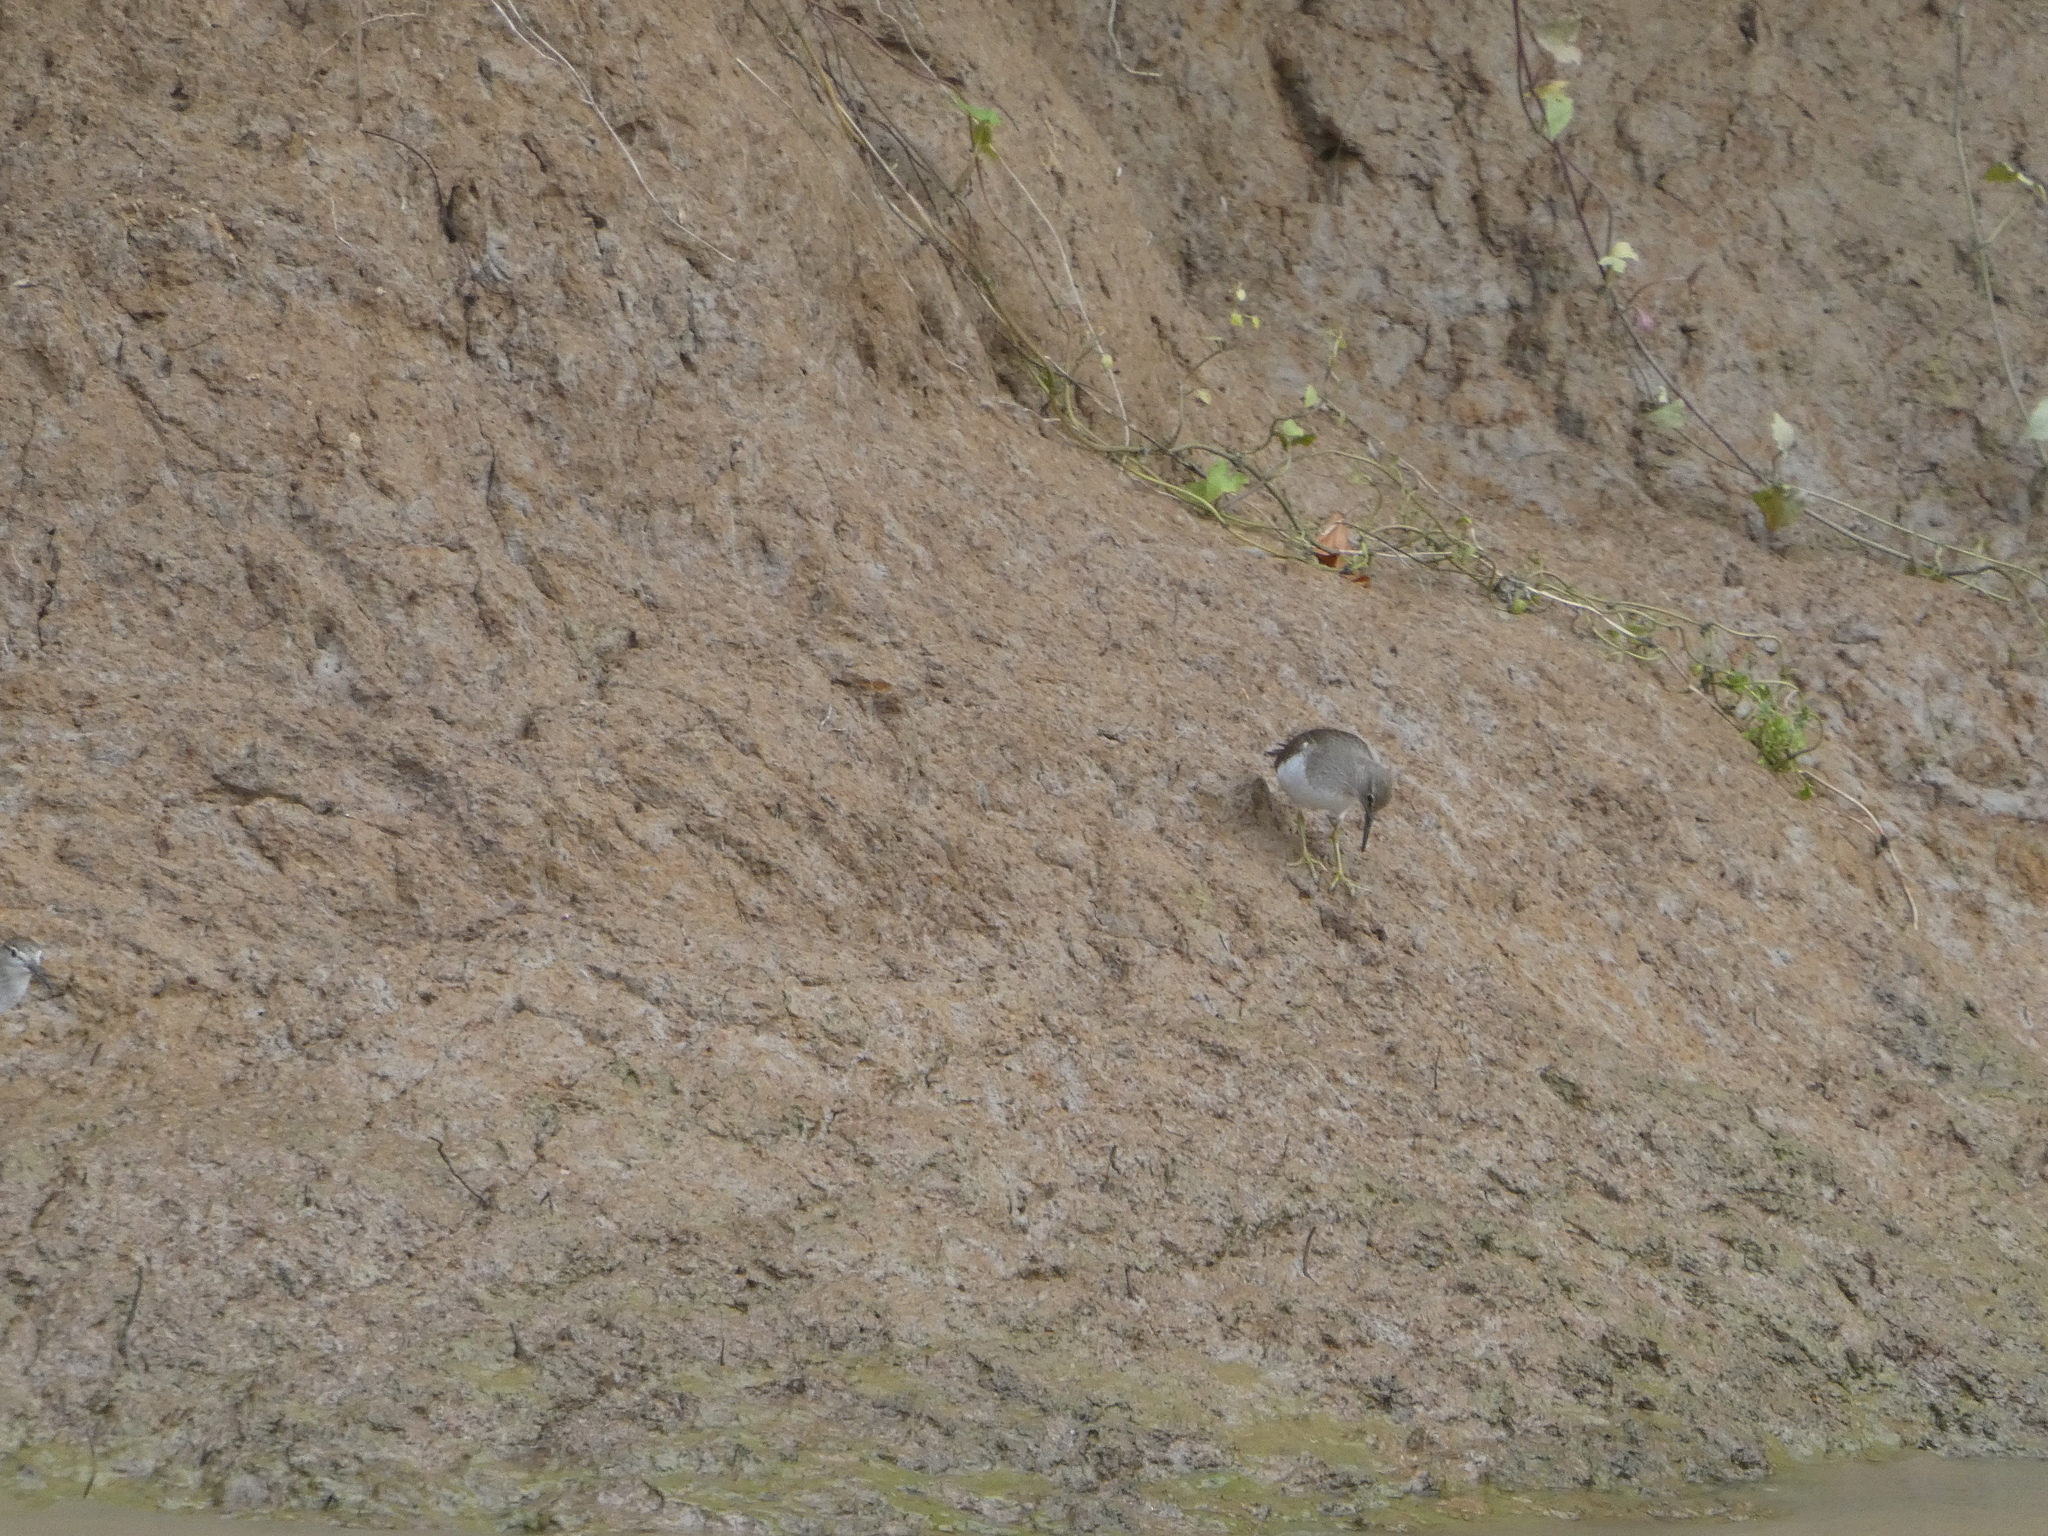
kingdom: Animalia
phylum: Chordata
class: Aves
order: Charadriiformes
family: Scolopacidae
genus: Actitis
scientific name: Actitis hypoleucos
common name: Common sandpiper
